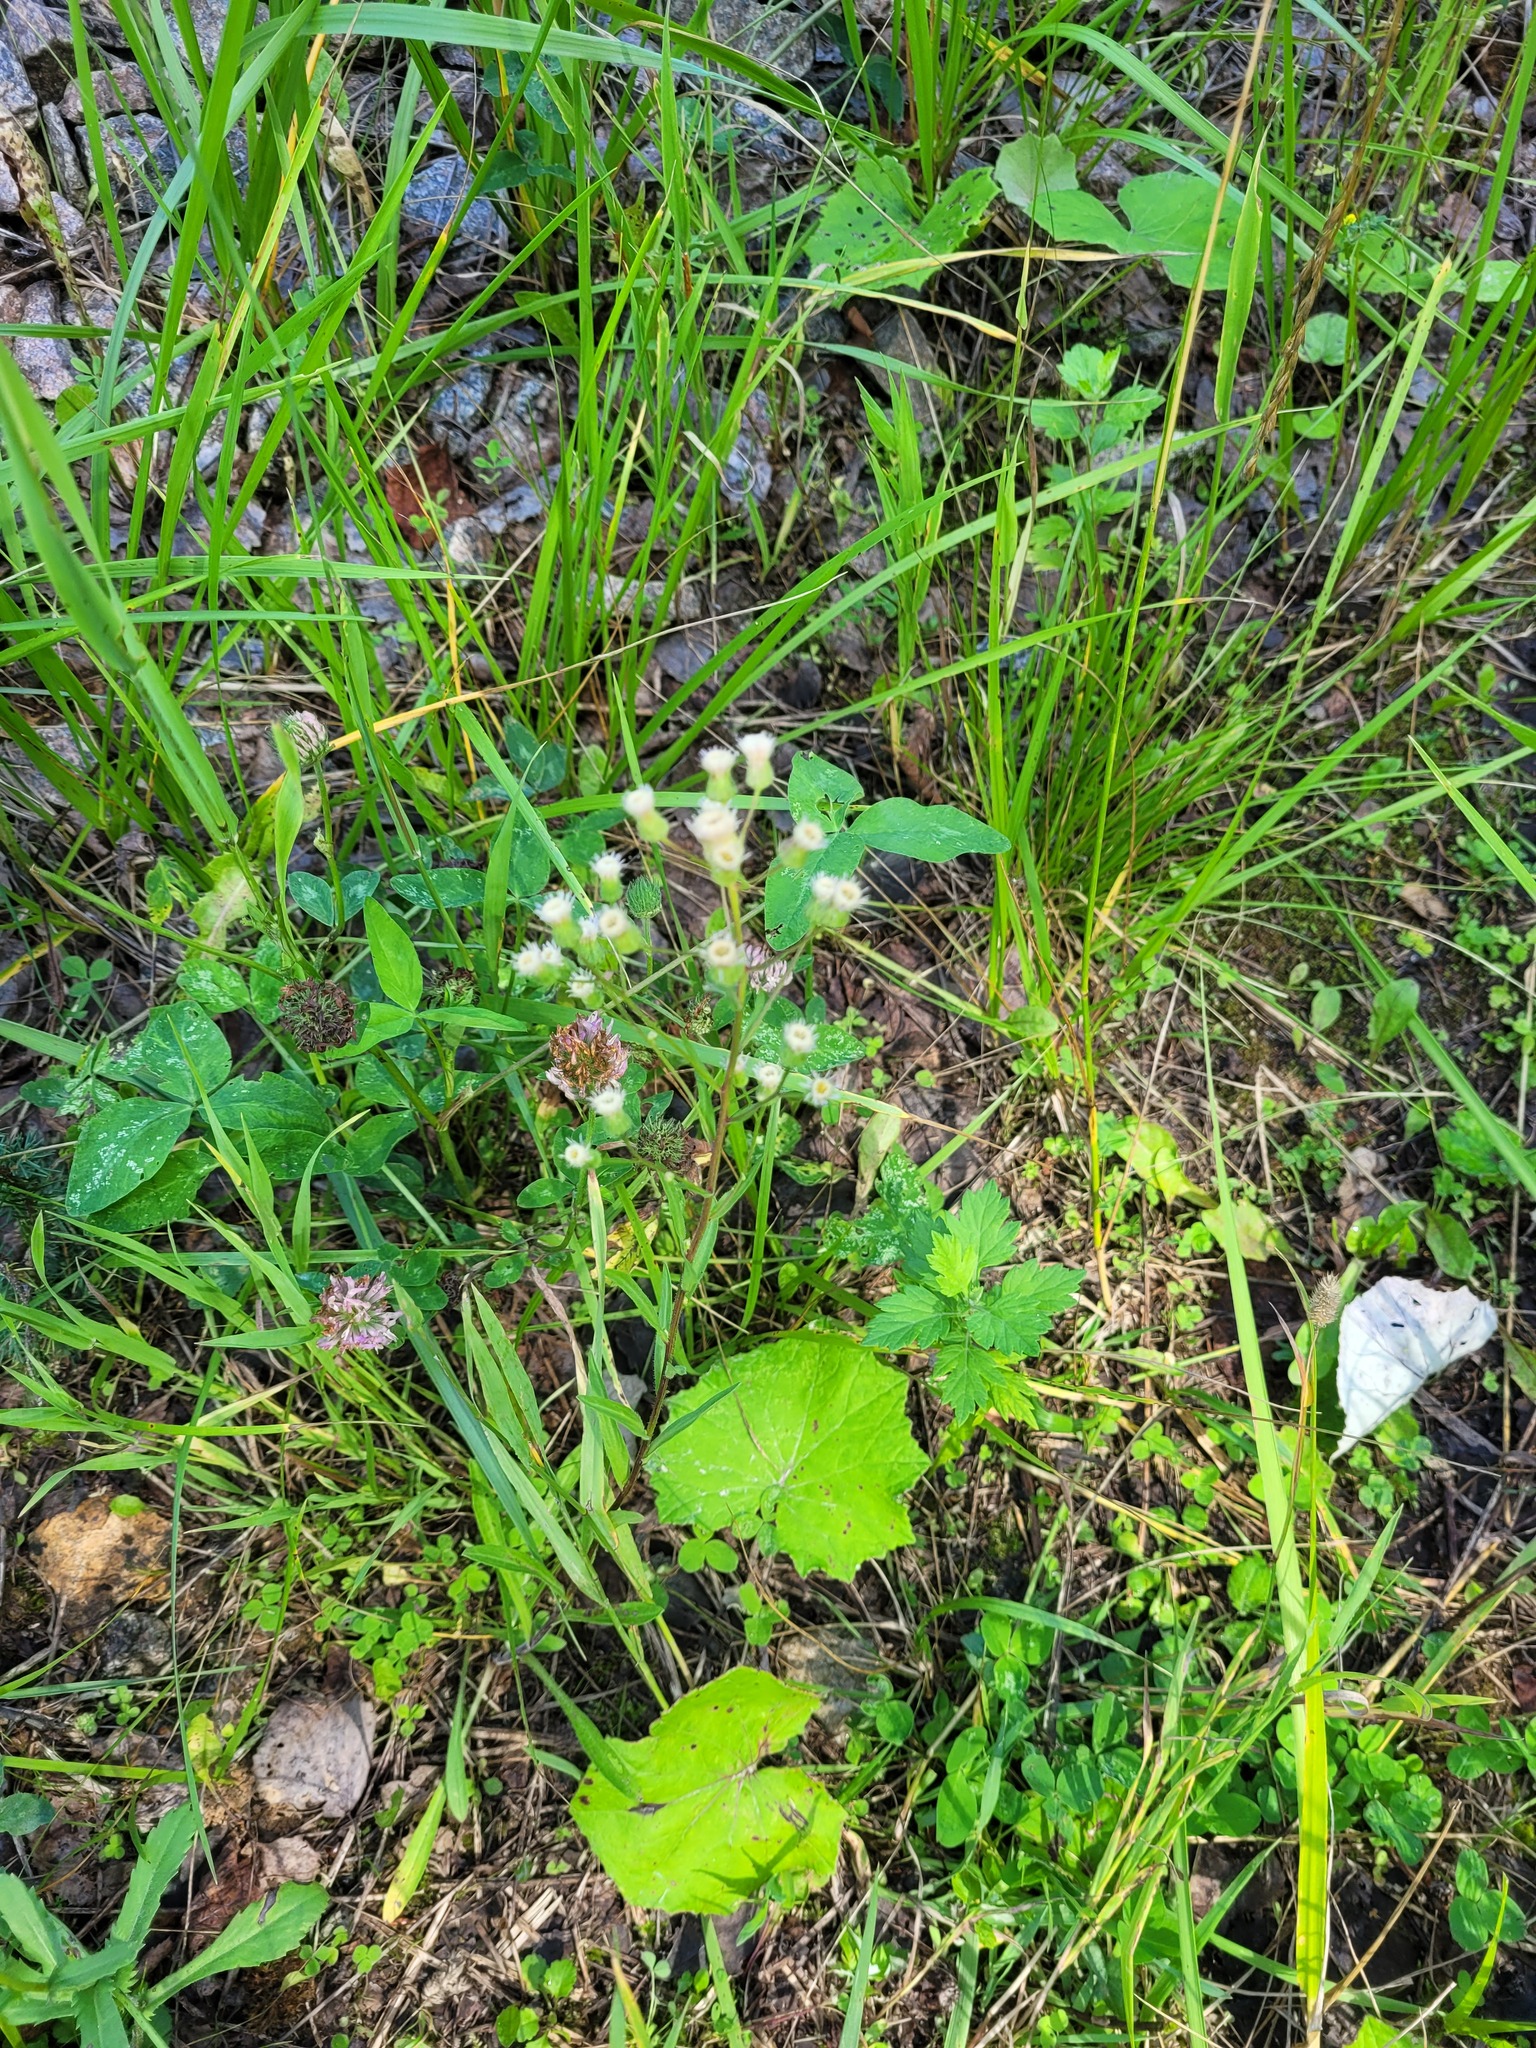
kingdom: Plantae
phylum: Tracheophyta
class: Magnoliopsida
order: Asterales
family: Asteraceae
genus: Erigeron
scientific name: Erigeron acris
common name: Blue fleabane
